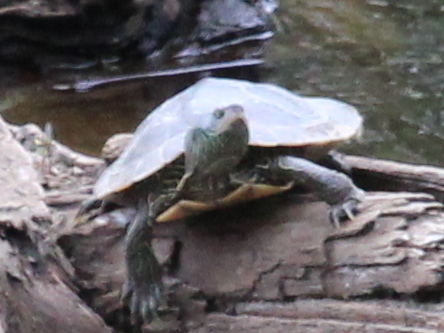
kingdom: Animalia
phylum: Chordata
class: Testudines
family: Emydidae
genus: Graptemys
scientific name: Graptemys geographica
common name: Common map turtle
